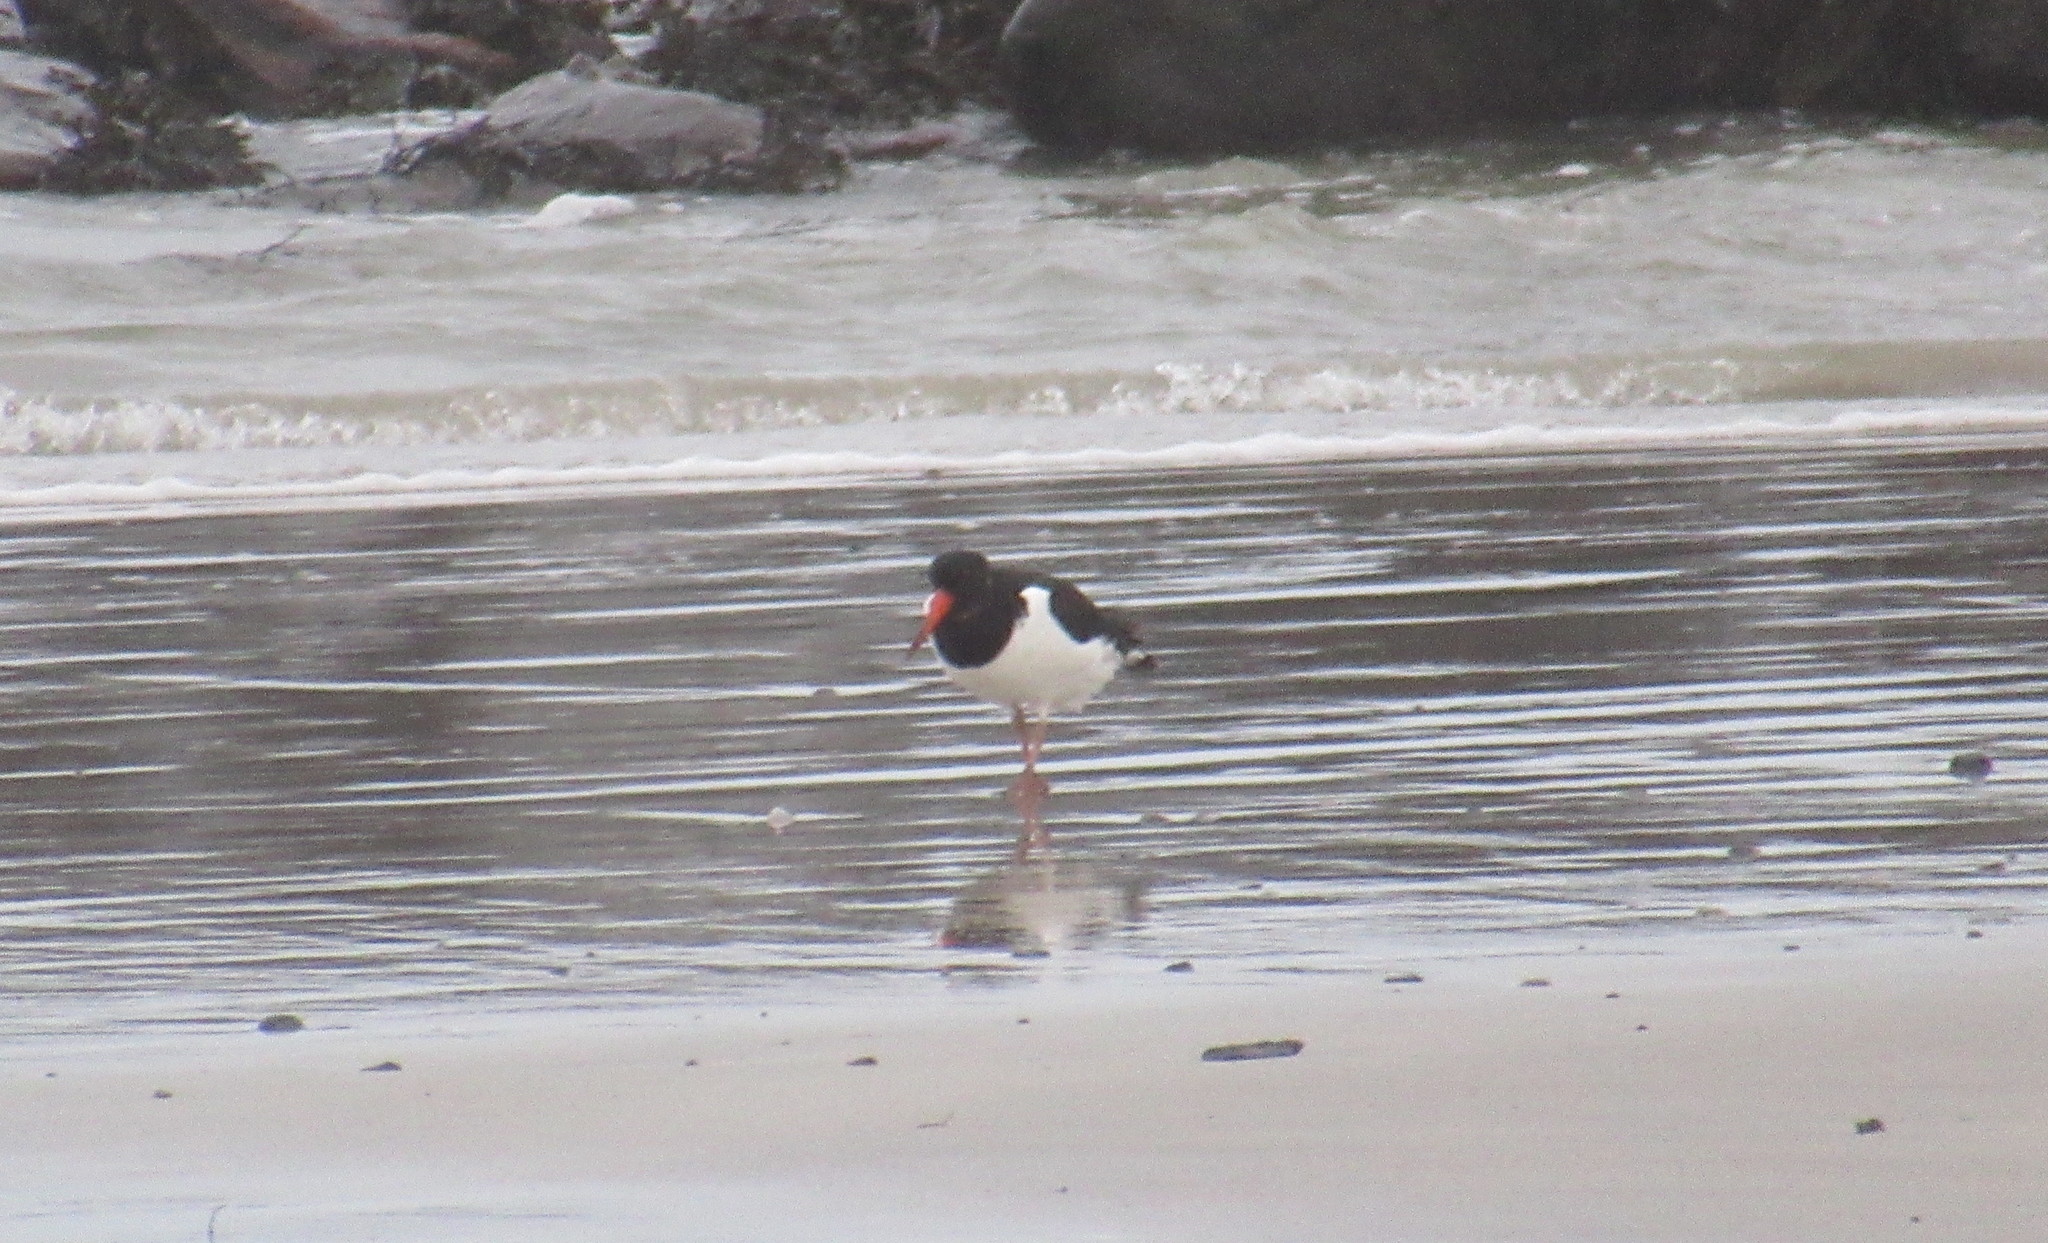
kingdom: Animalia
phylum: Chordata
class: Aves
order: Charadriiformes
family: Haematopodidae
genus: Haematopus
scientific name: Haematopus ostralegus
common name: Eurasian oystercatcher
